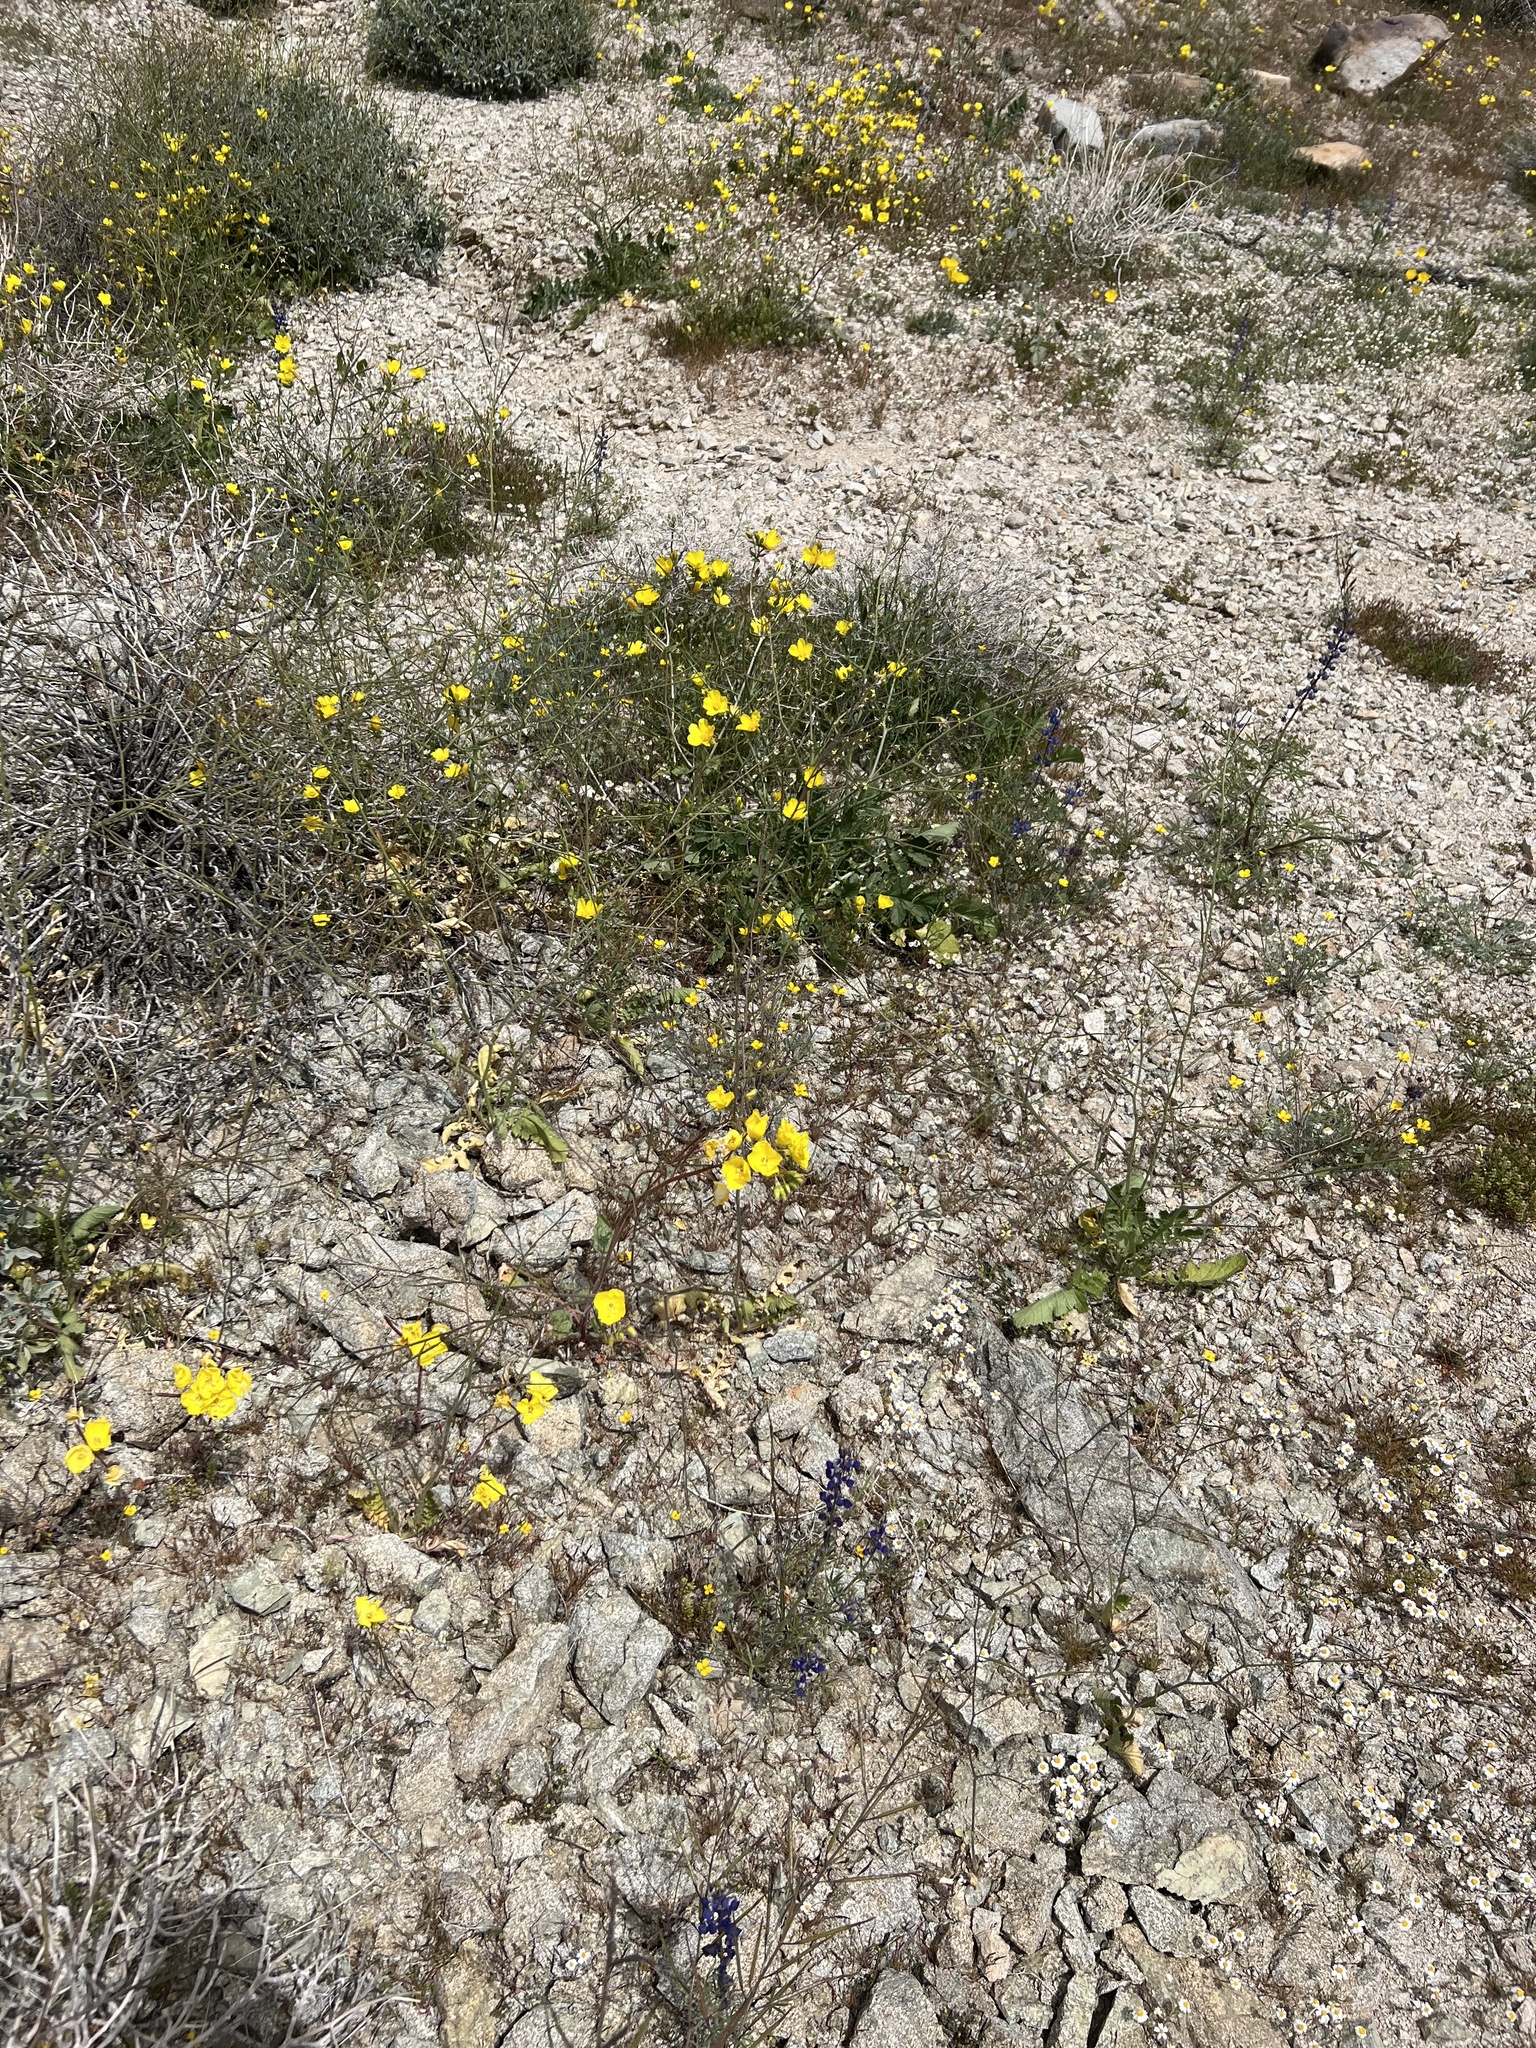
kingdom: Plantae
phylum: Tracheophyta
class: Magnoliopsida
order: Myrtales
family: Onagraceae
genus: Chylismia
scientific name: Chylismia brevipes
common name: Yellow cups
